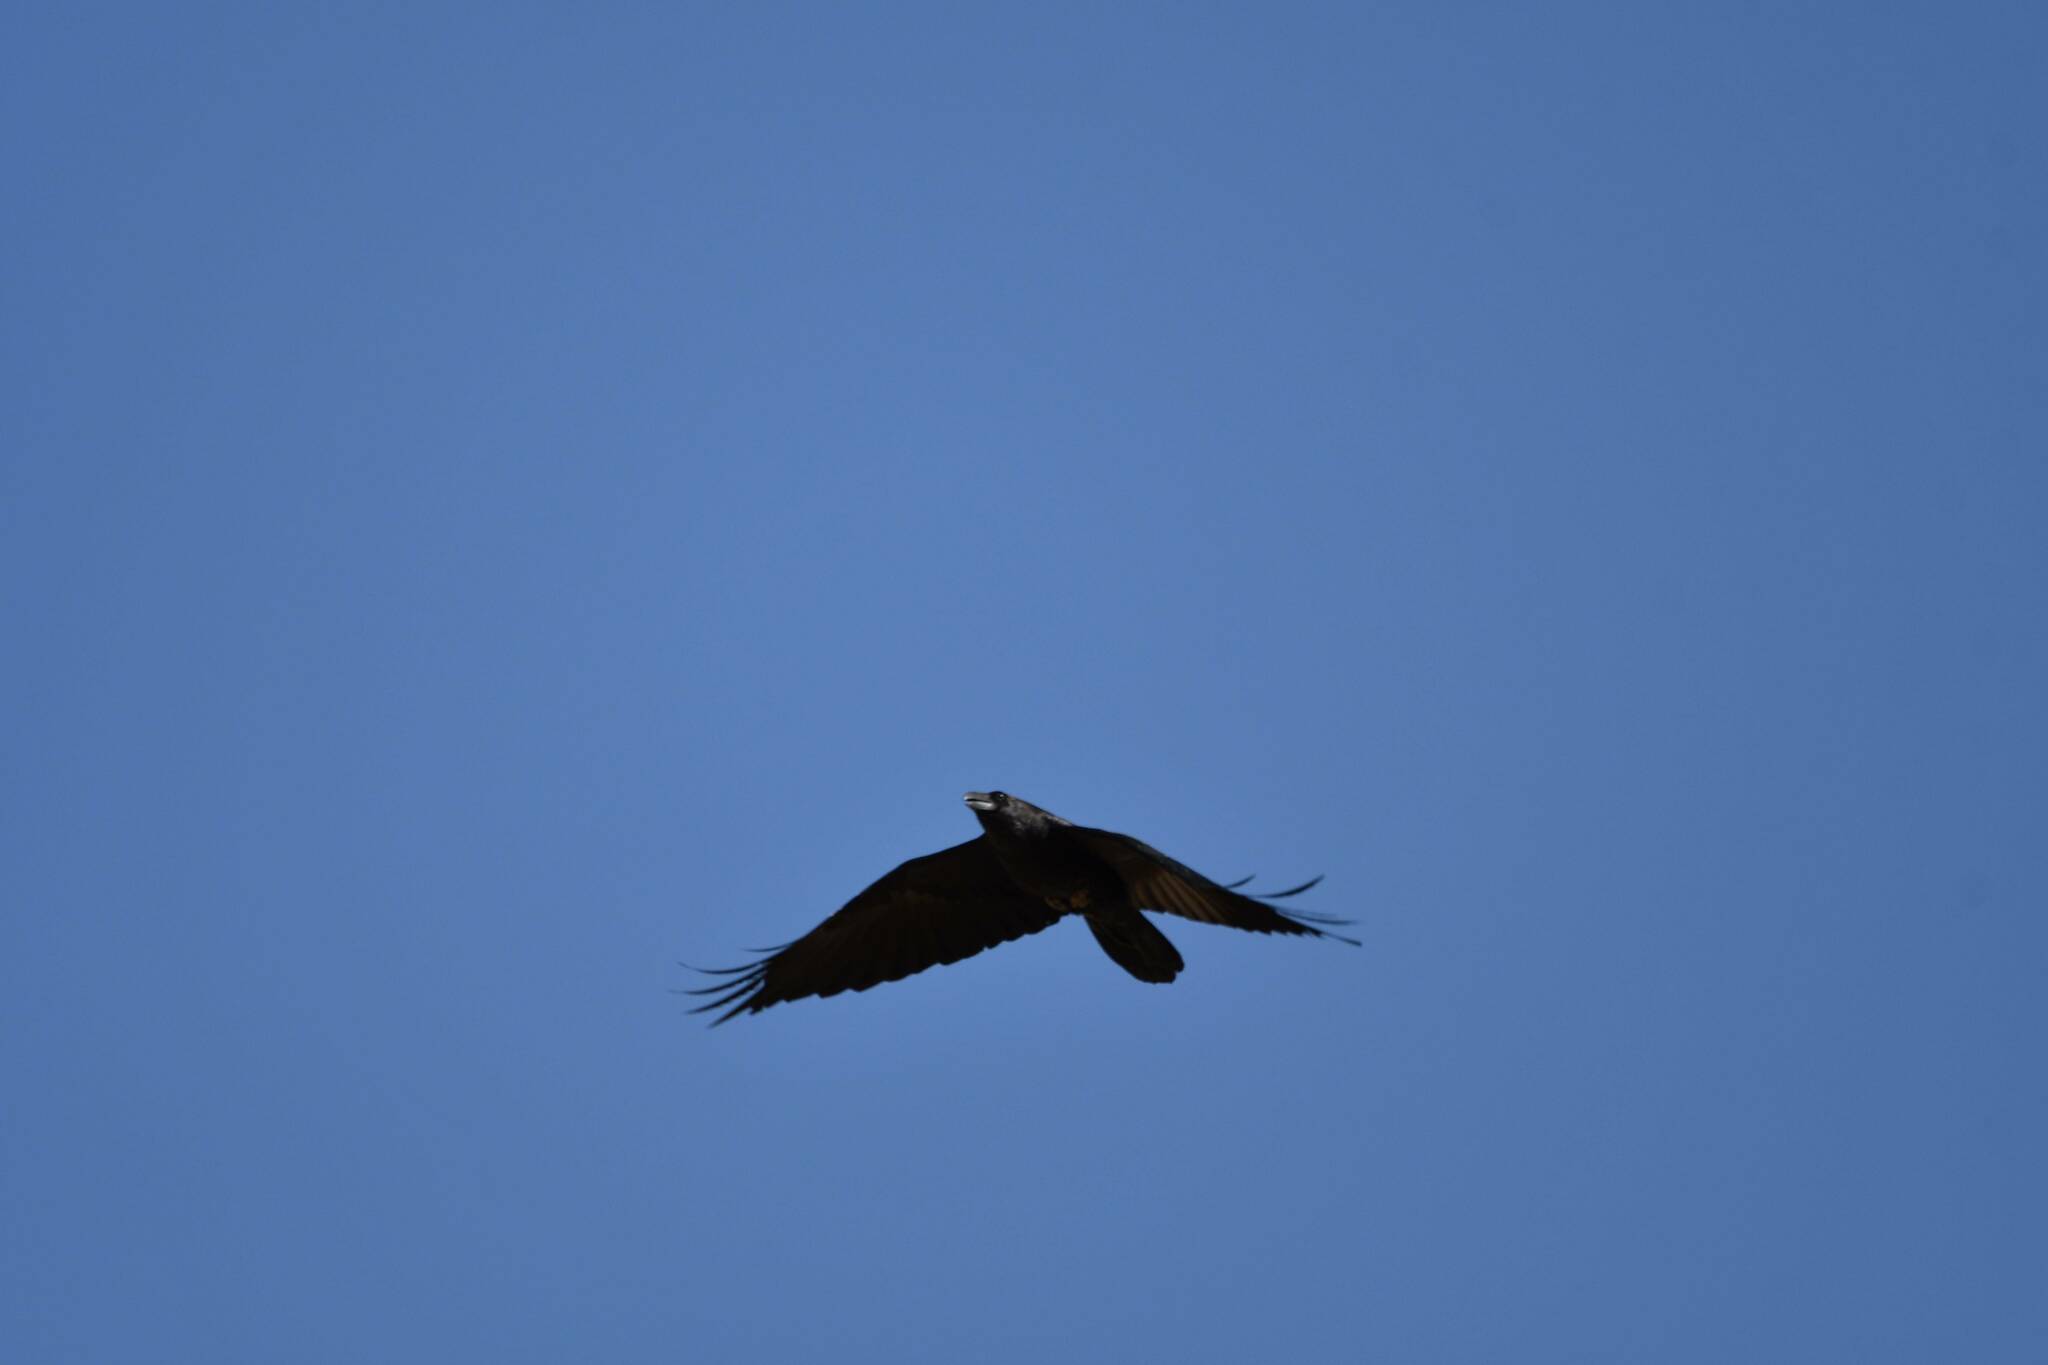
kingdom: Animalia
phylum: Chordata
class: Aves
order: Passeriformes
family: Corvidae
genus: Corvus
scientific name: Corvus corax
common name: Common raven
